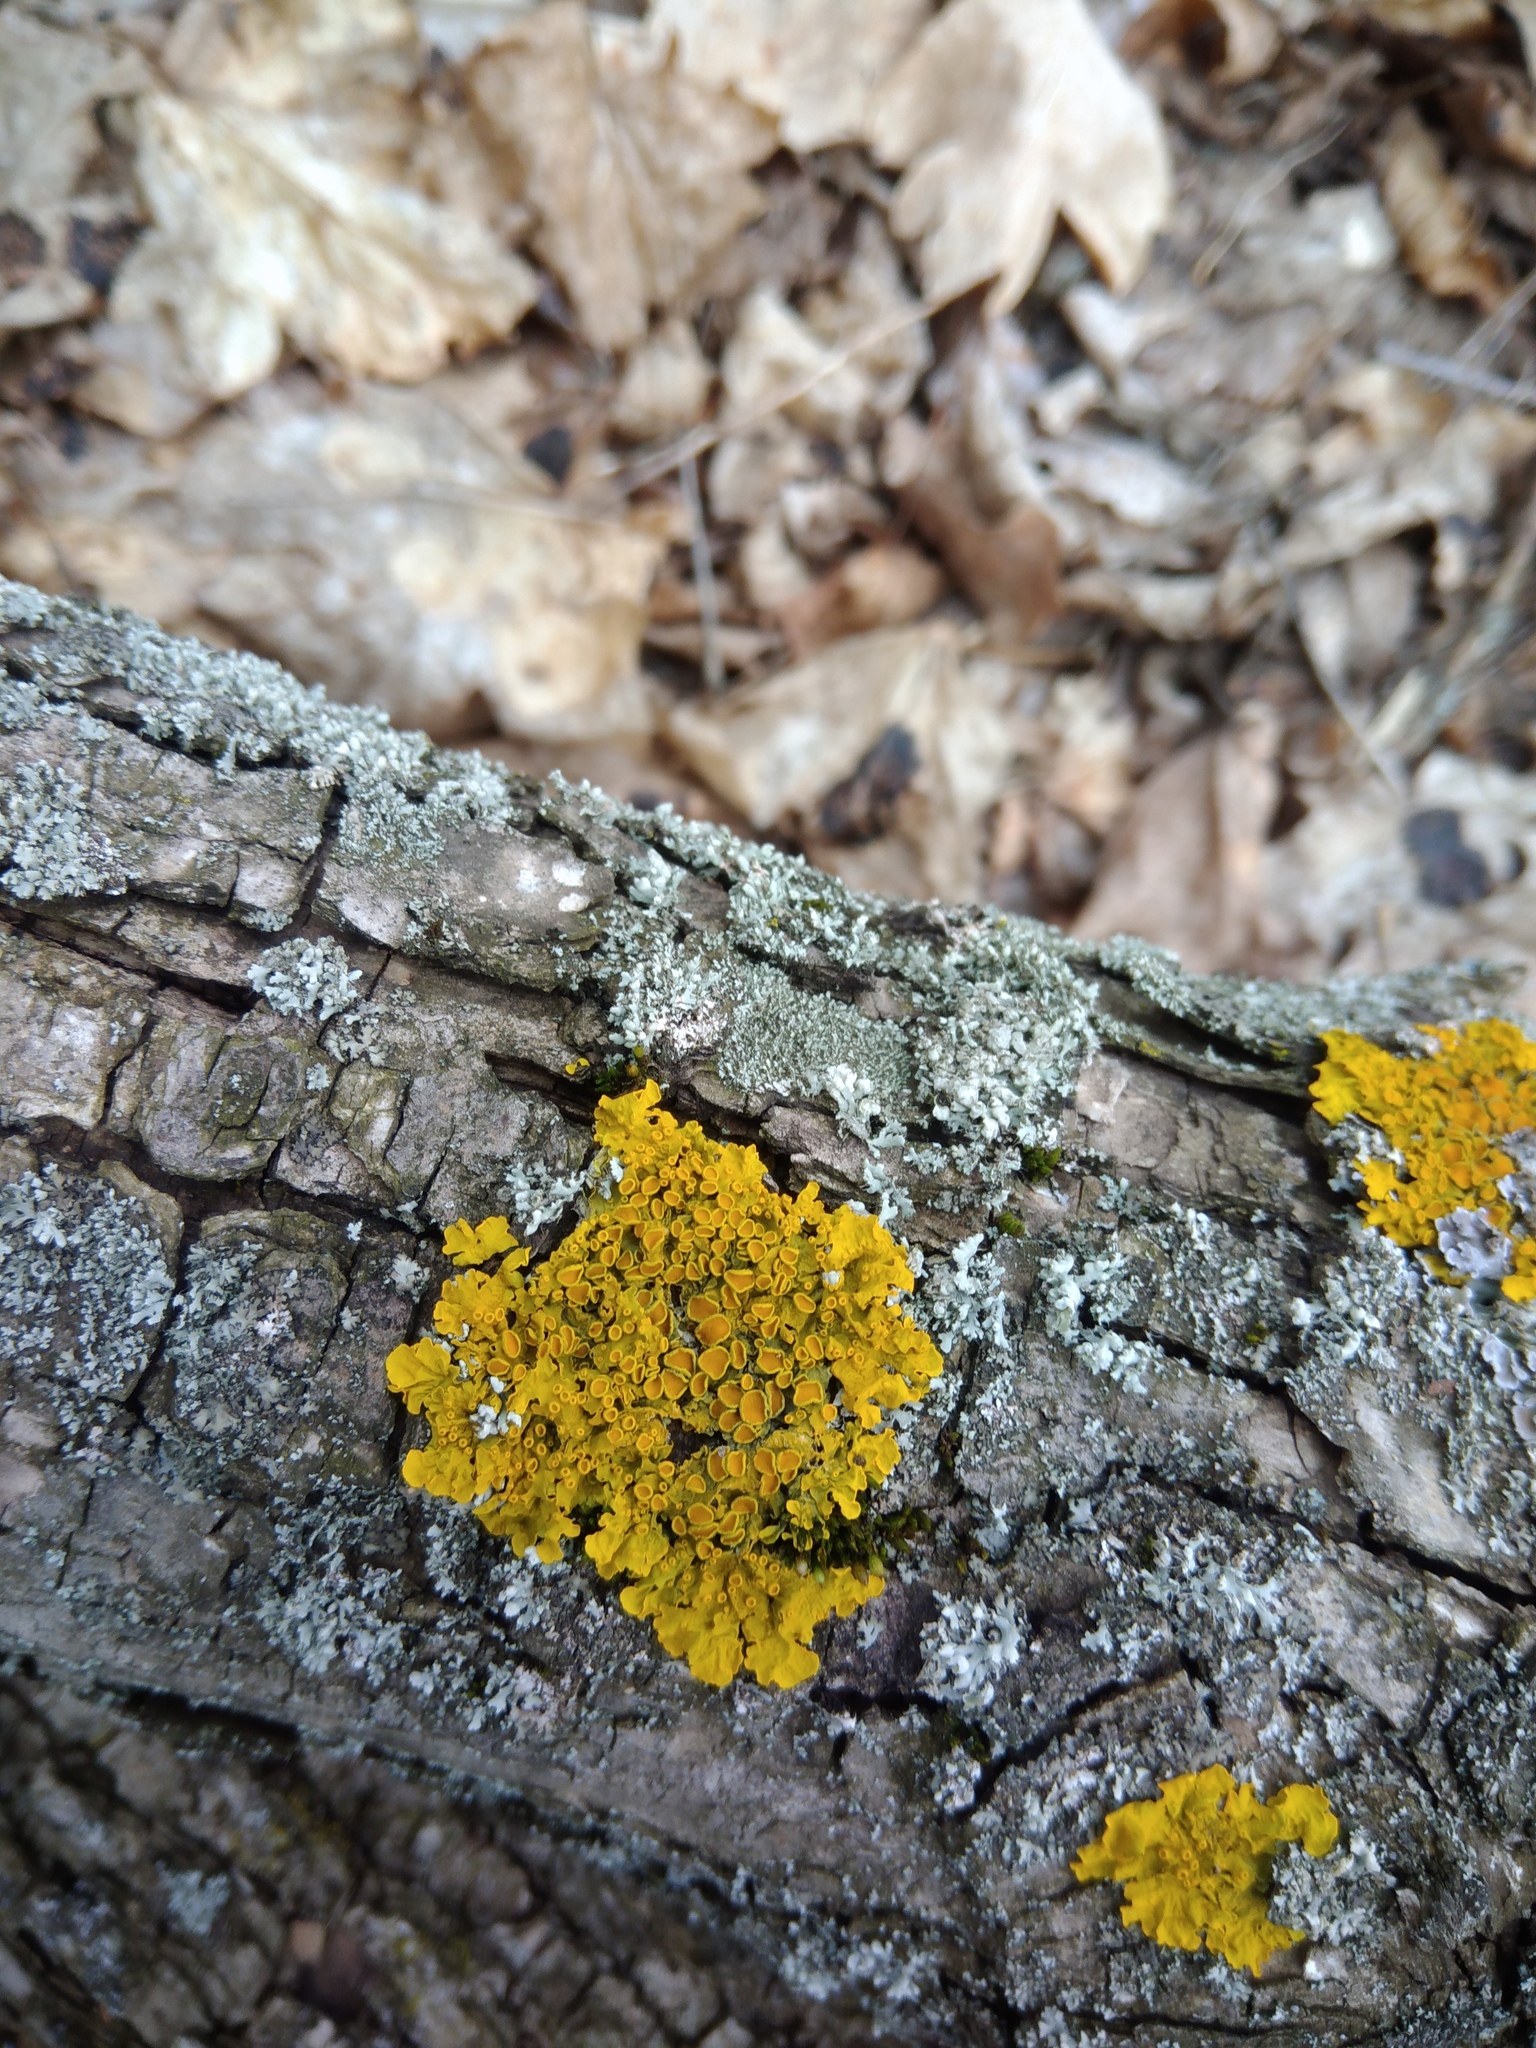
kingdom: Fungi
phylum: Ascomycota
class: Lecanoromycetes
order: Teloschistales
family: Teloschistaceae
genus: Xanthoria
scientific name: Xanthoria parietina
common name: Common orange lichen
